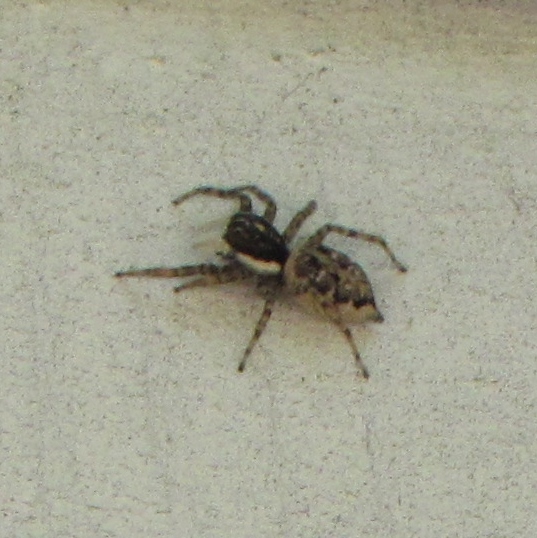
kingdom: Animalia
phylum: Arthropoda
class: Arachnida
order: Araneae
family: Salticidae
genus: Menemerus
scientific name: Menemerus semilimbatus
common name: Jumping spider
